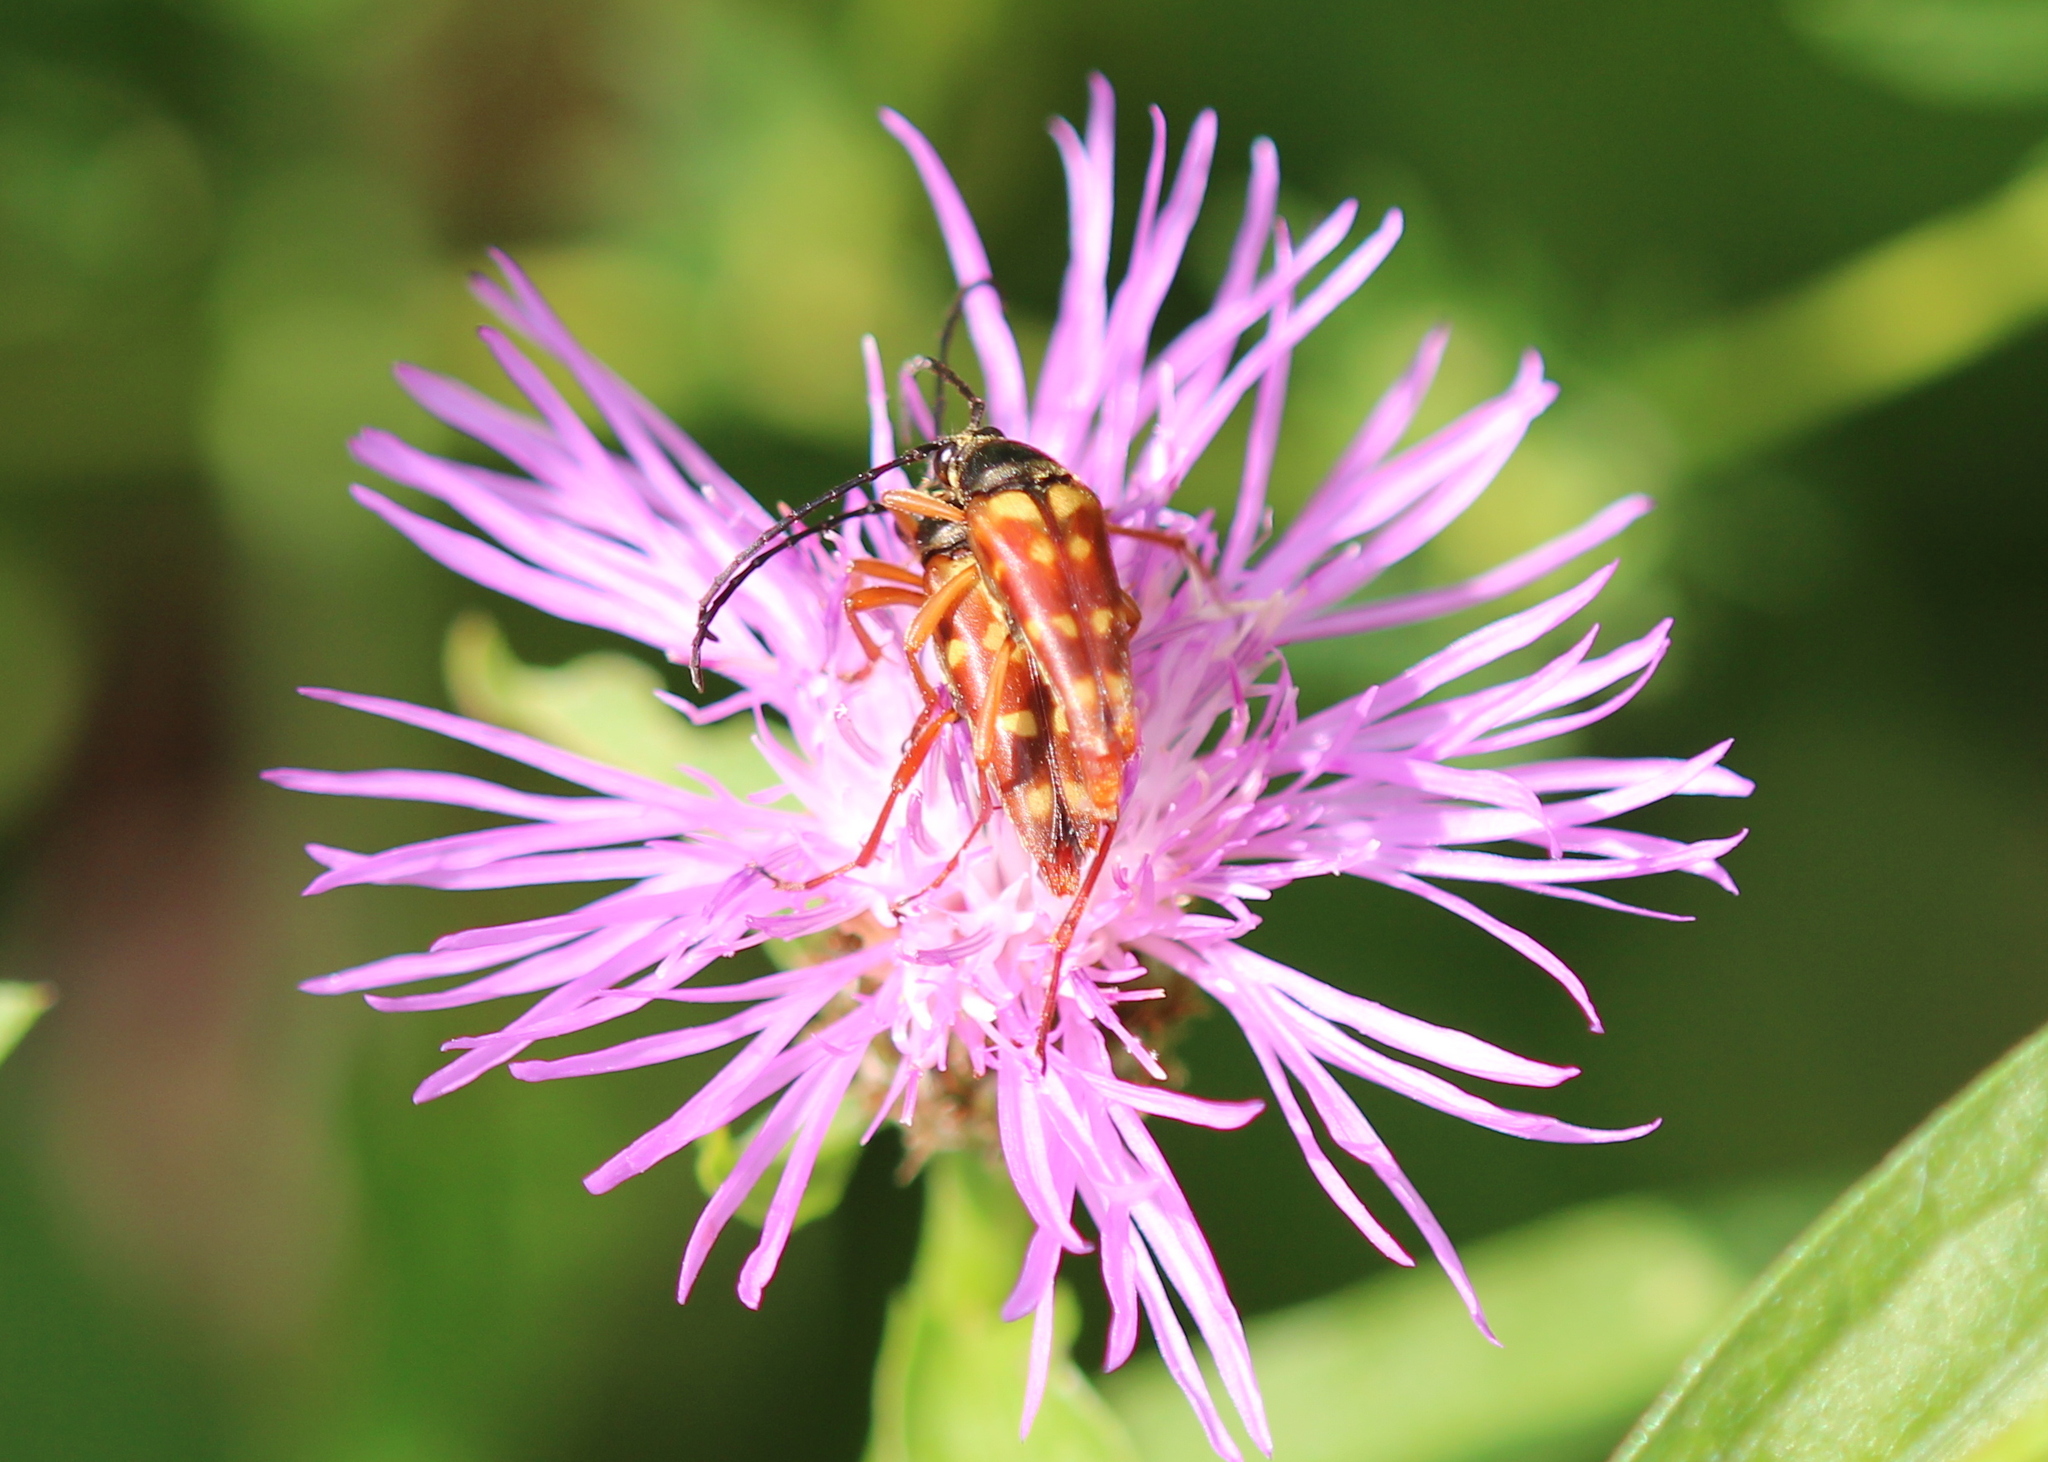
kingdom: Animalia
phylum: Arthropoda
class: Insecta
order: Coleoptera
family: Cerambycidae
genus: Typocerus
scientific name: Typocerus velutinus
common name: Banded longhorn beetle
